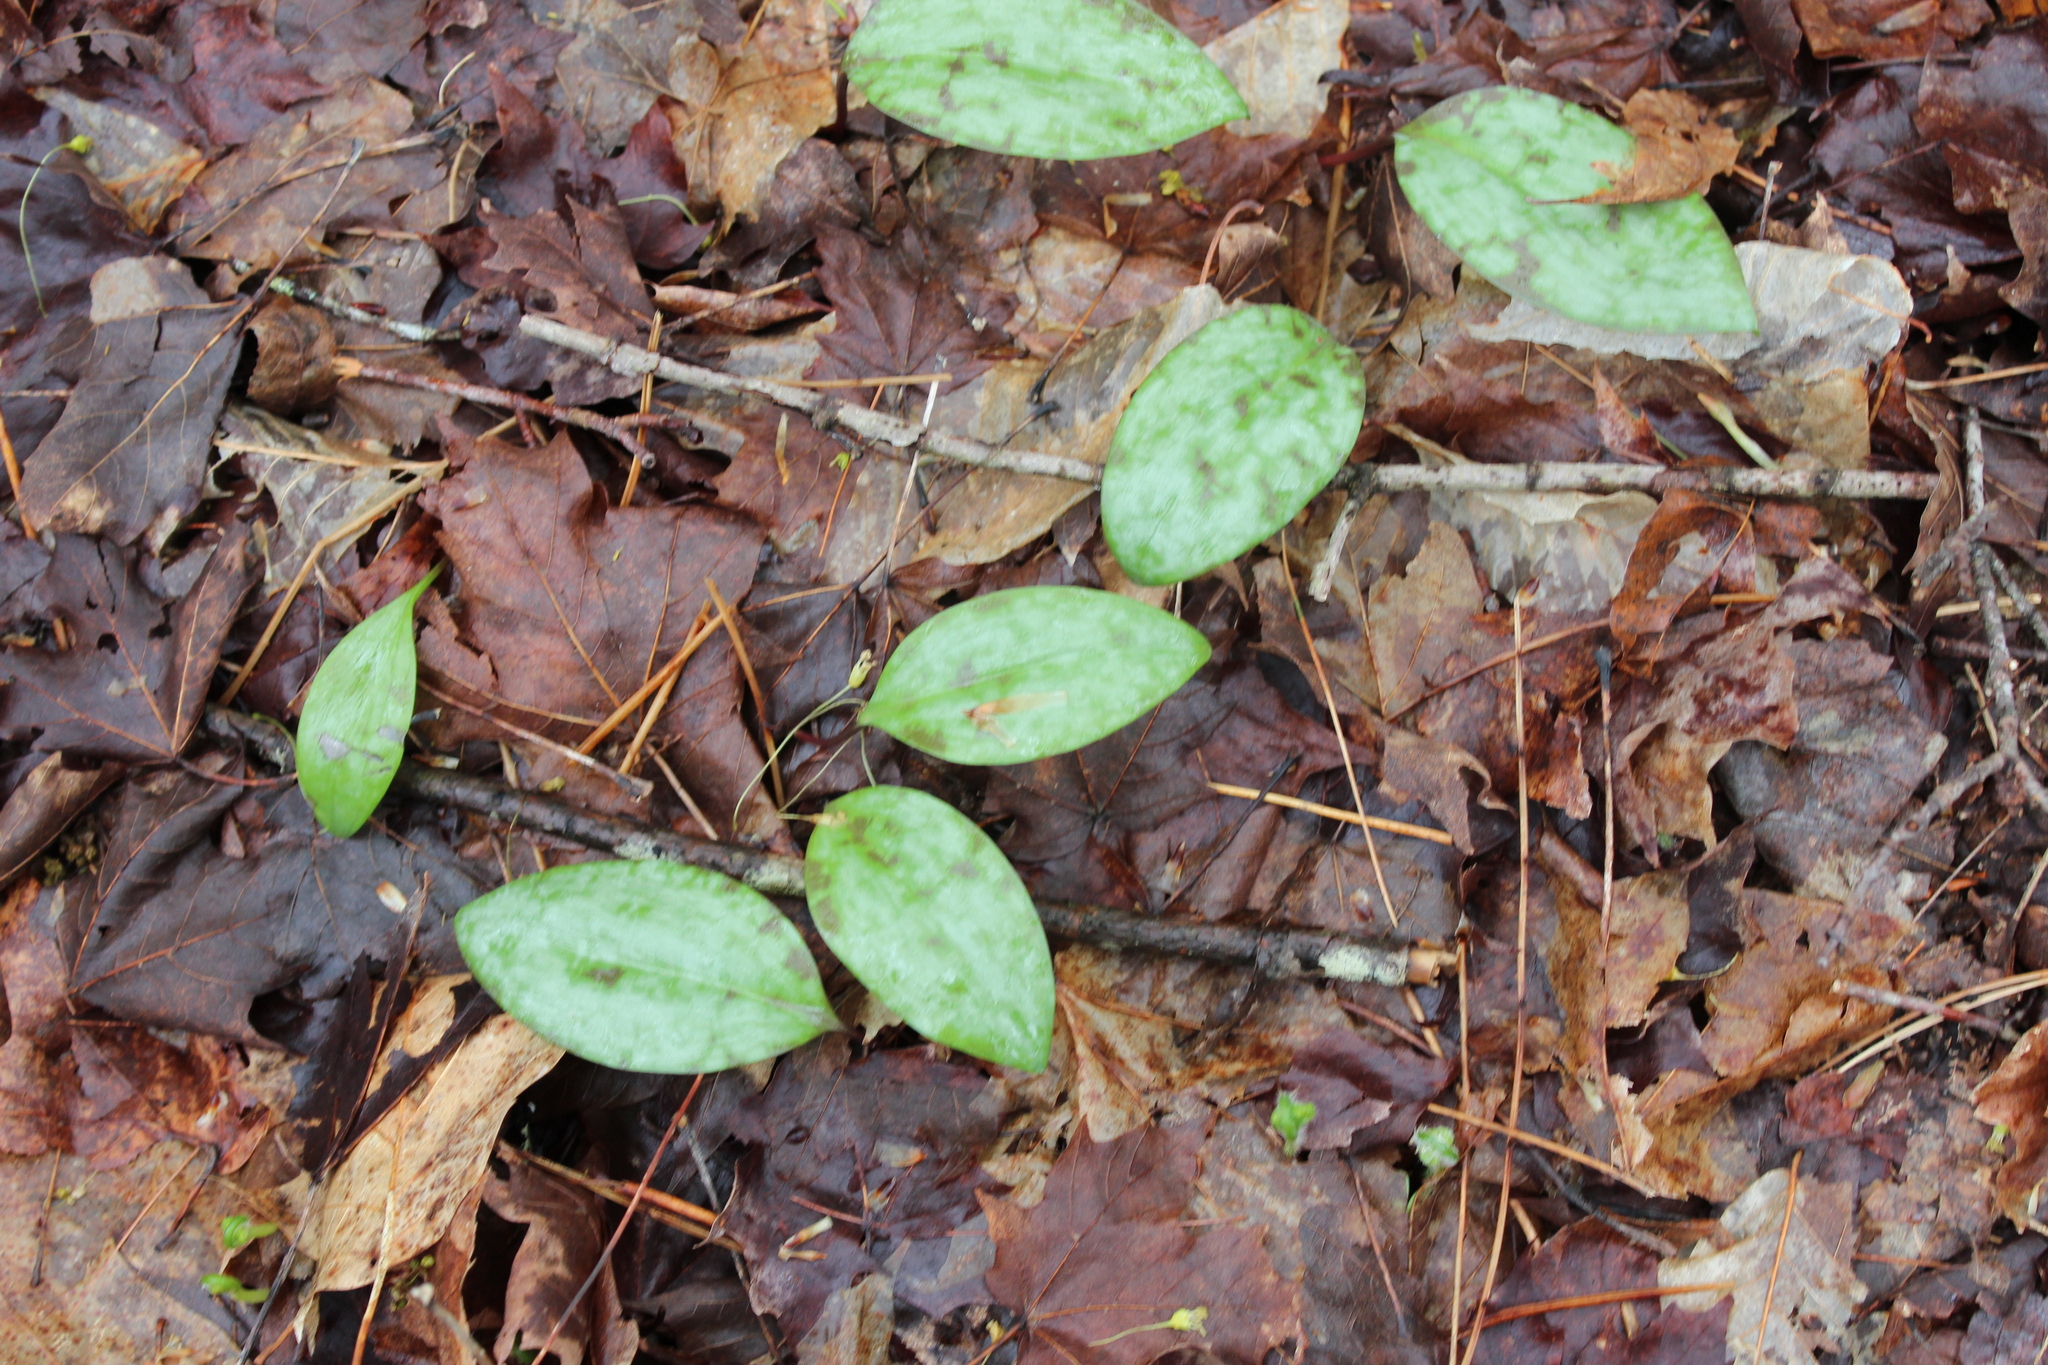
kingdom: Plantae
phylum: Tracheophyta
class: Liliopsida
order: Liliales
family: Liliaceae
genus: Erythronium
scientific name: Erythronium americanum
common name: Yellow adder's-tongue
